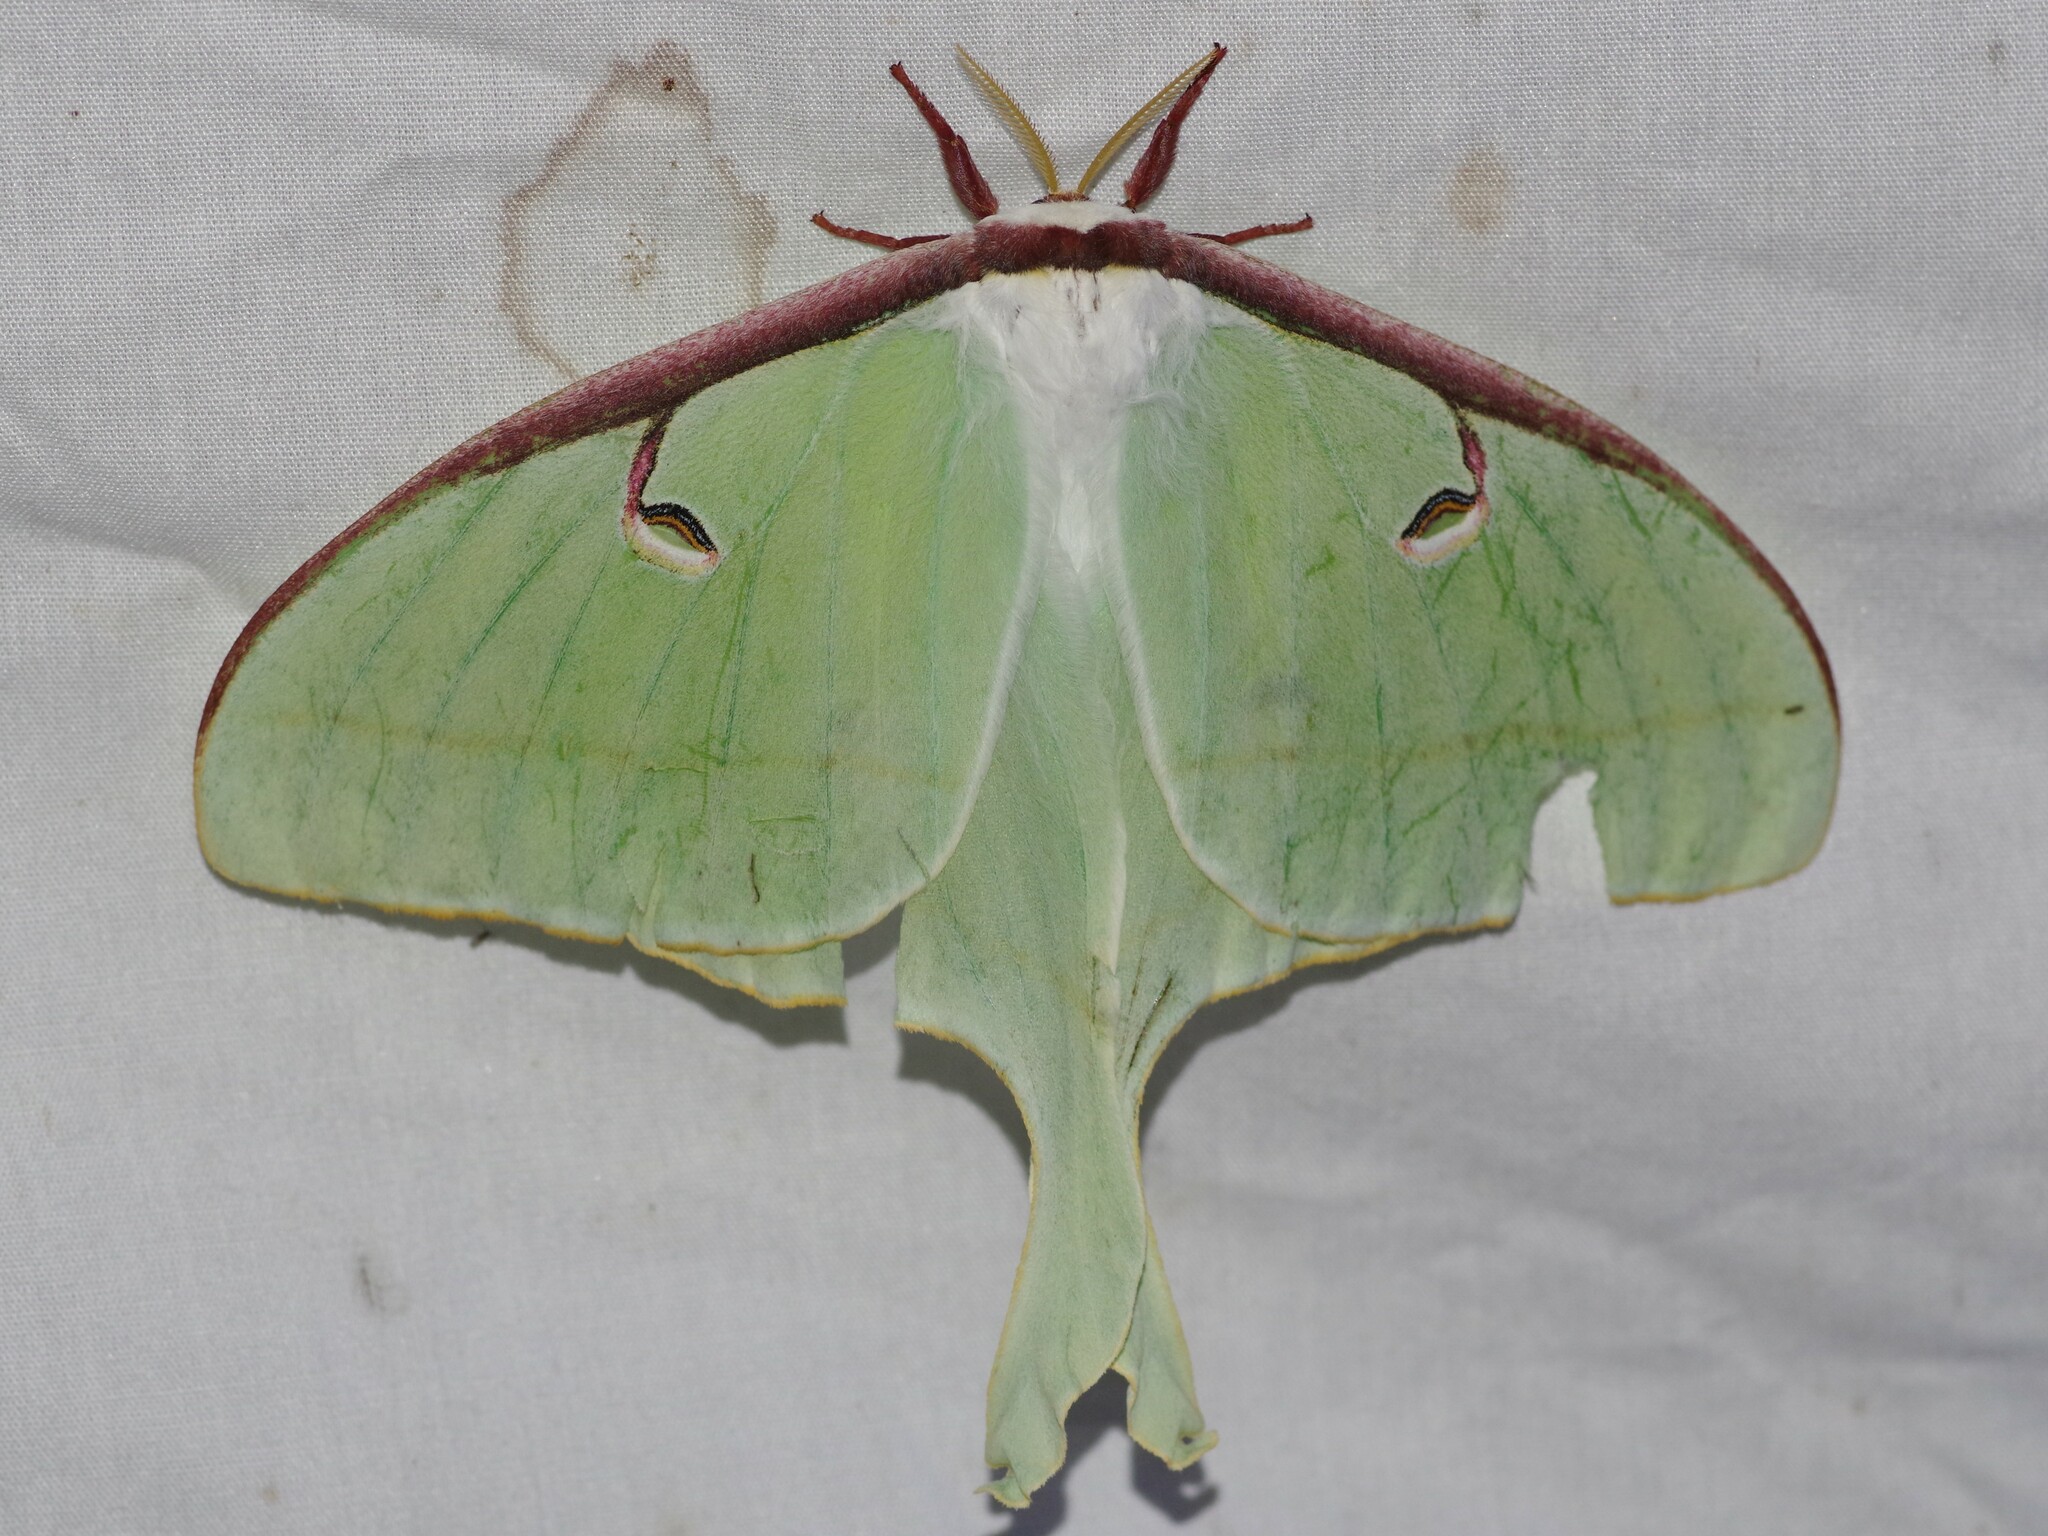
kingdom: Animalia
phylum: Arthropoda
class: Insecta
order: Lepidoptera
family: Saturniidae
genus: Actias
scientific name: Actias luna
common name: Luna moth
